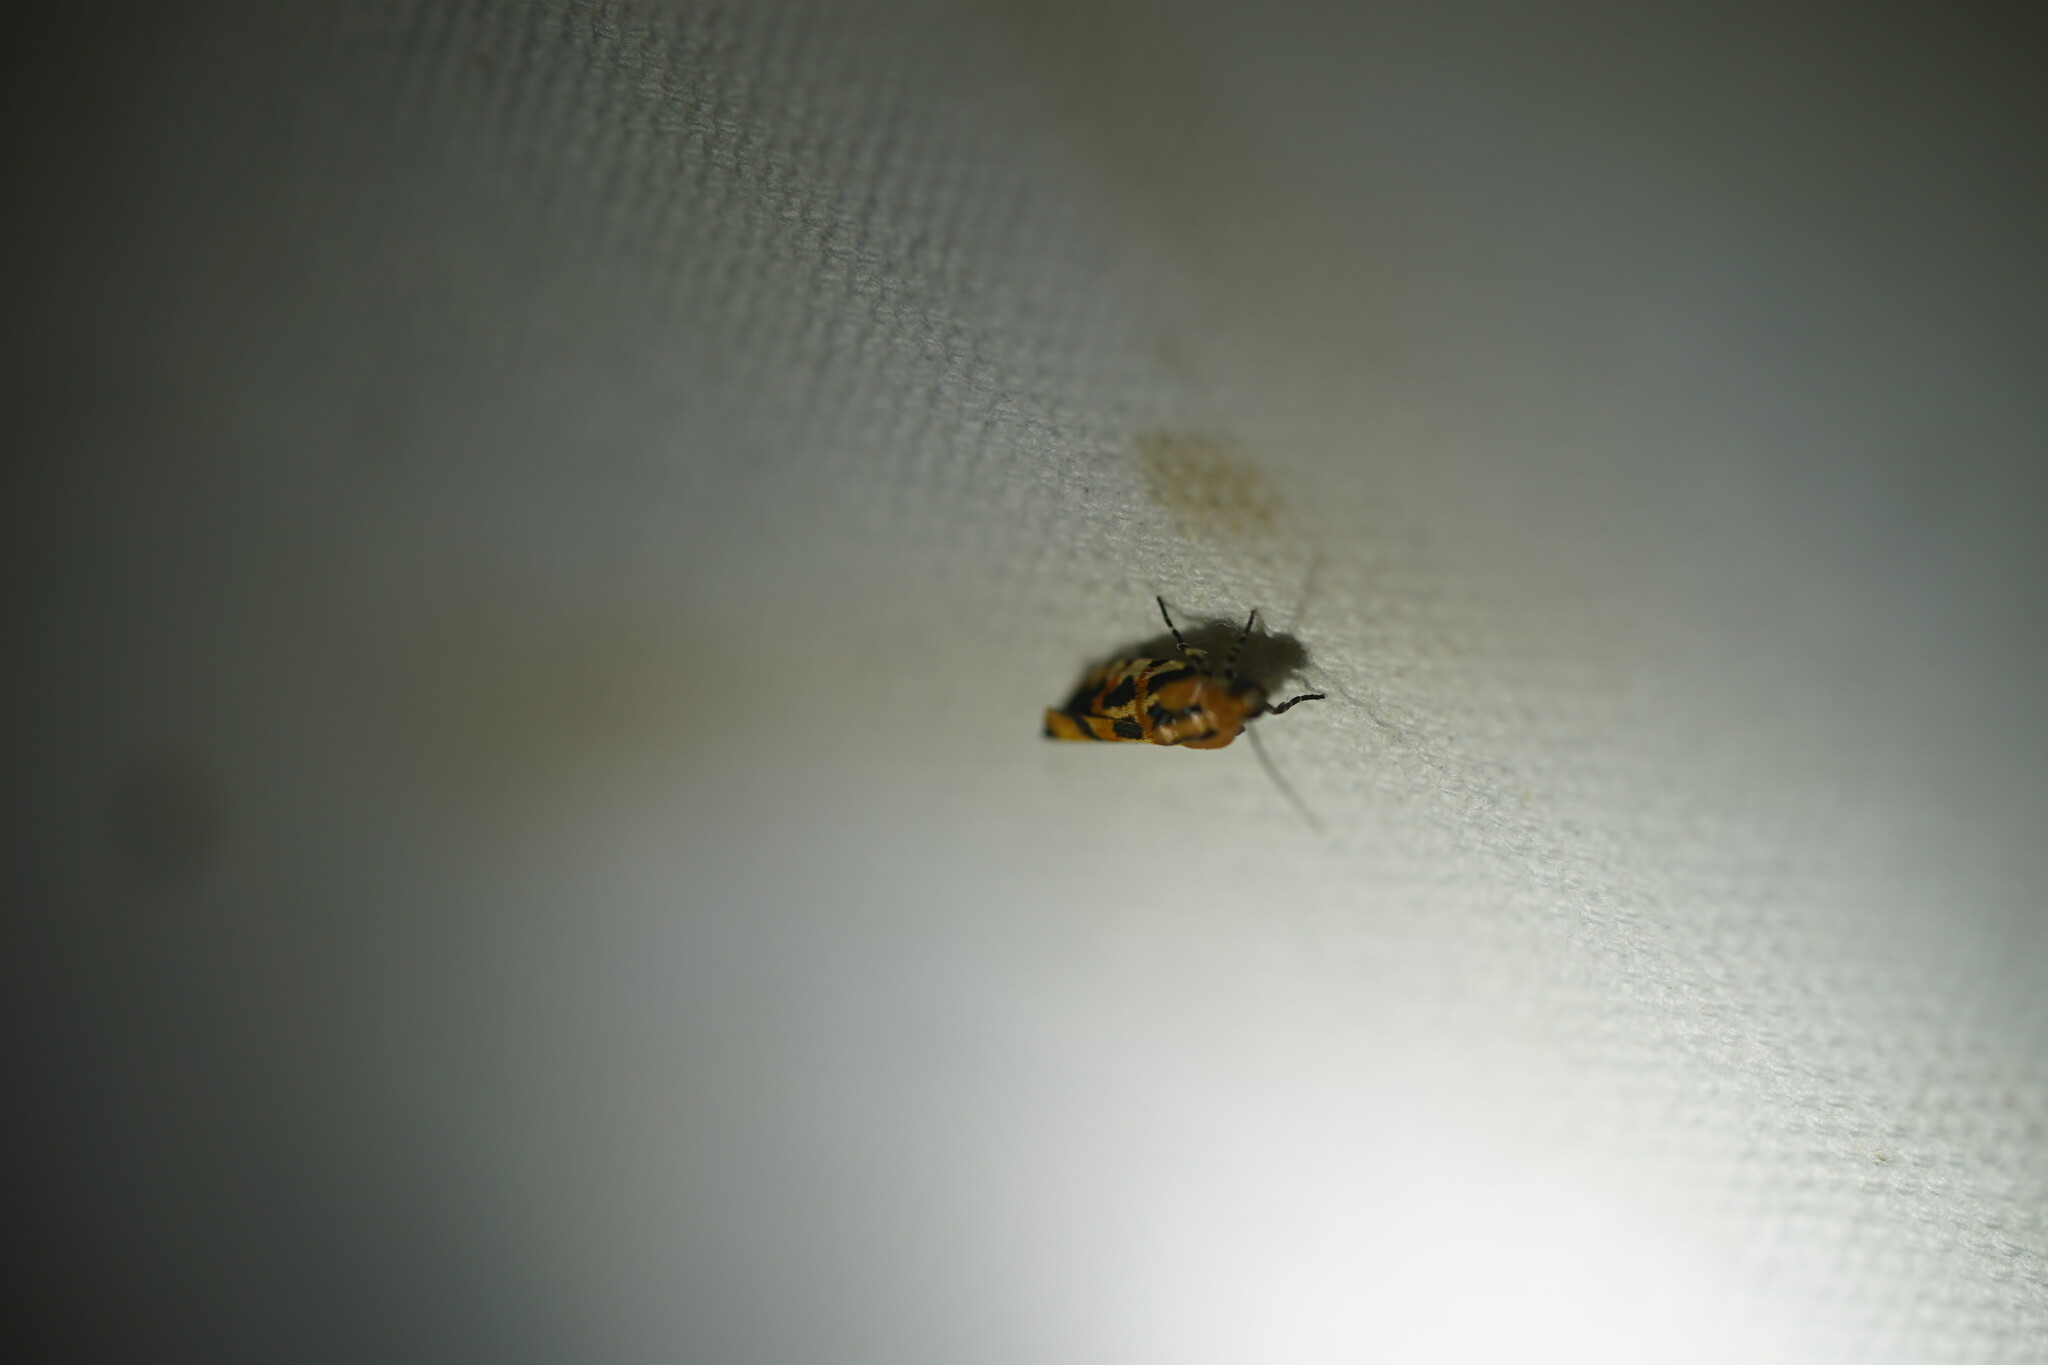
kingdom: Animalia
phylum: Arthropoda
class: Insecta
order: Lepidoptera
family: Noctuidae
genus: Acontia
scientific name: Acontia leo
